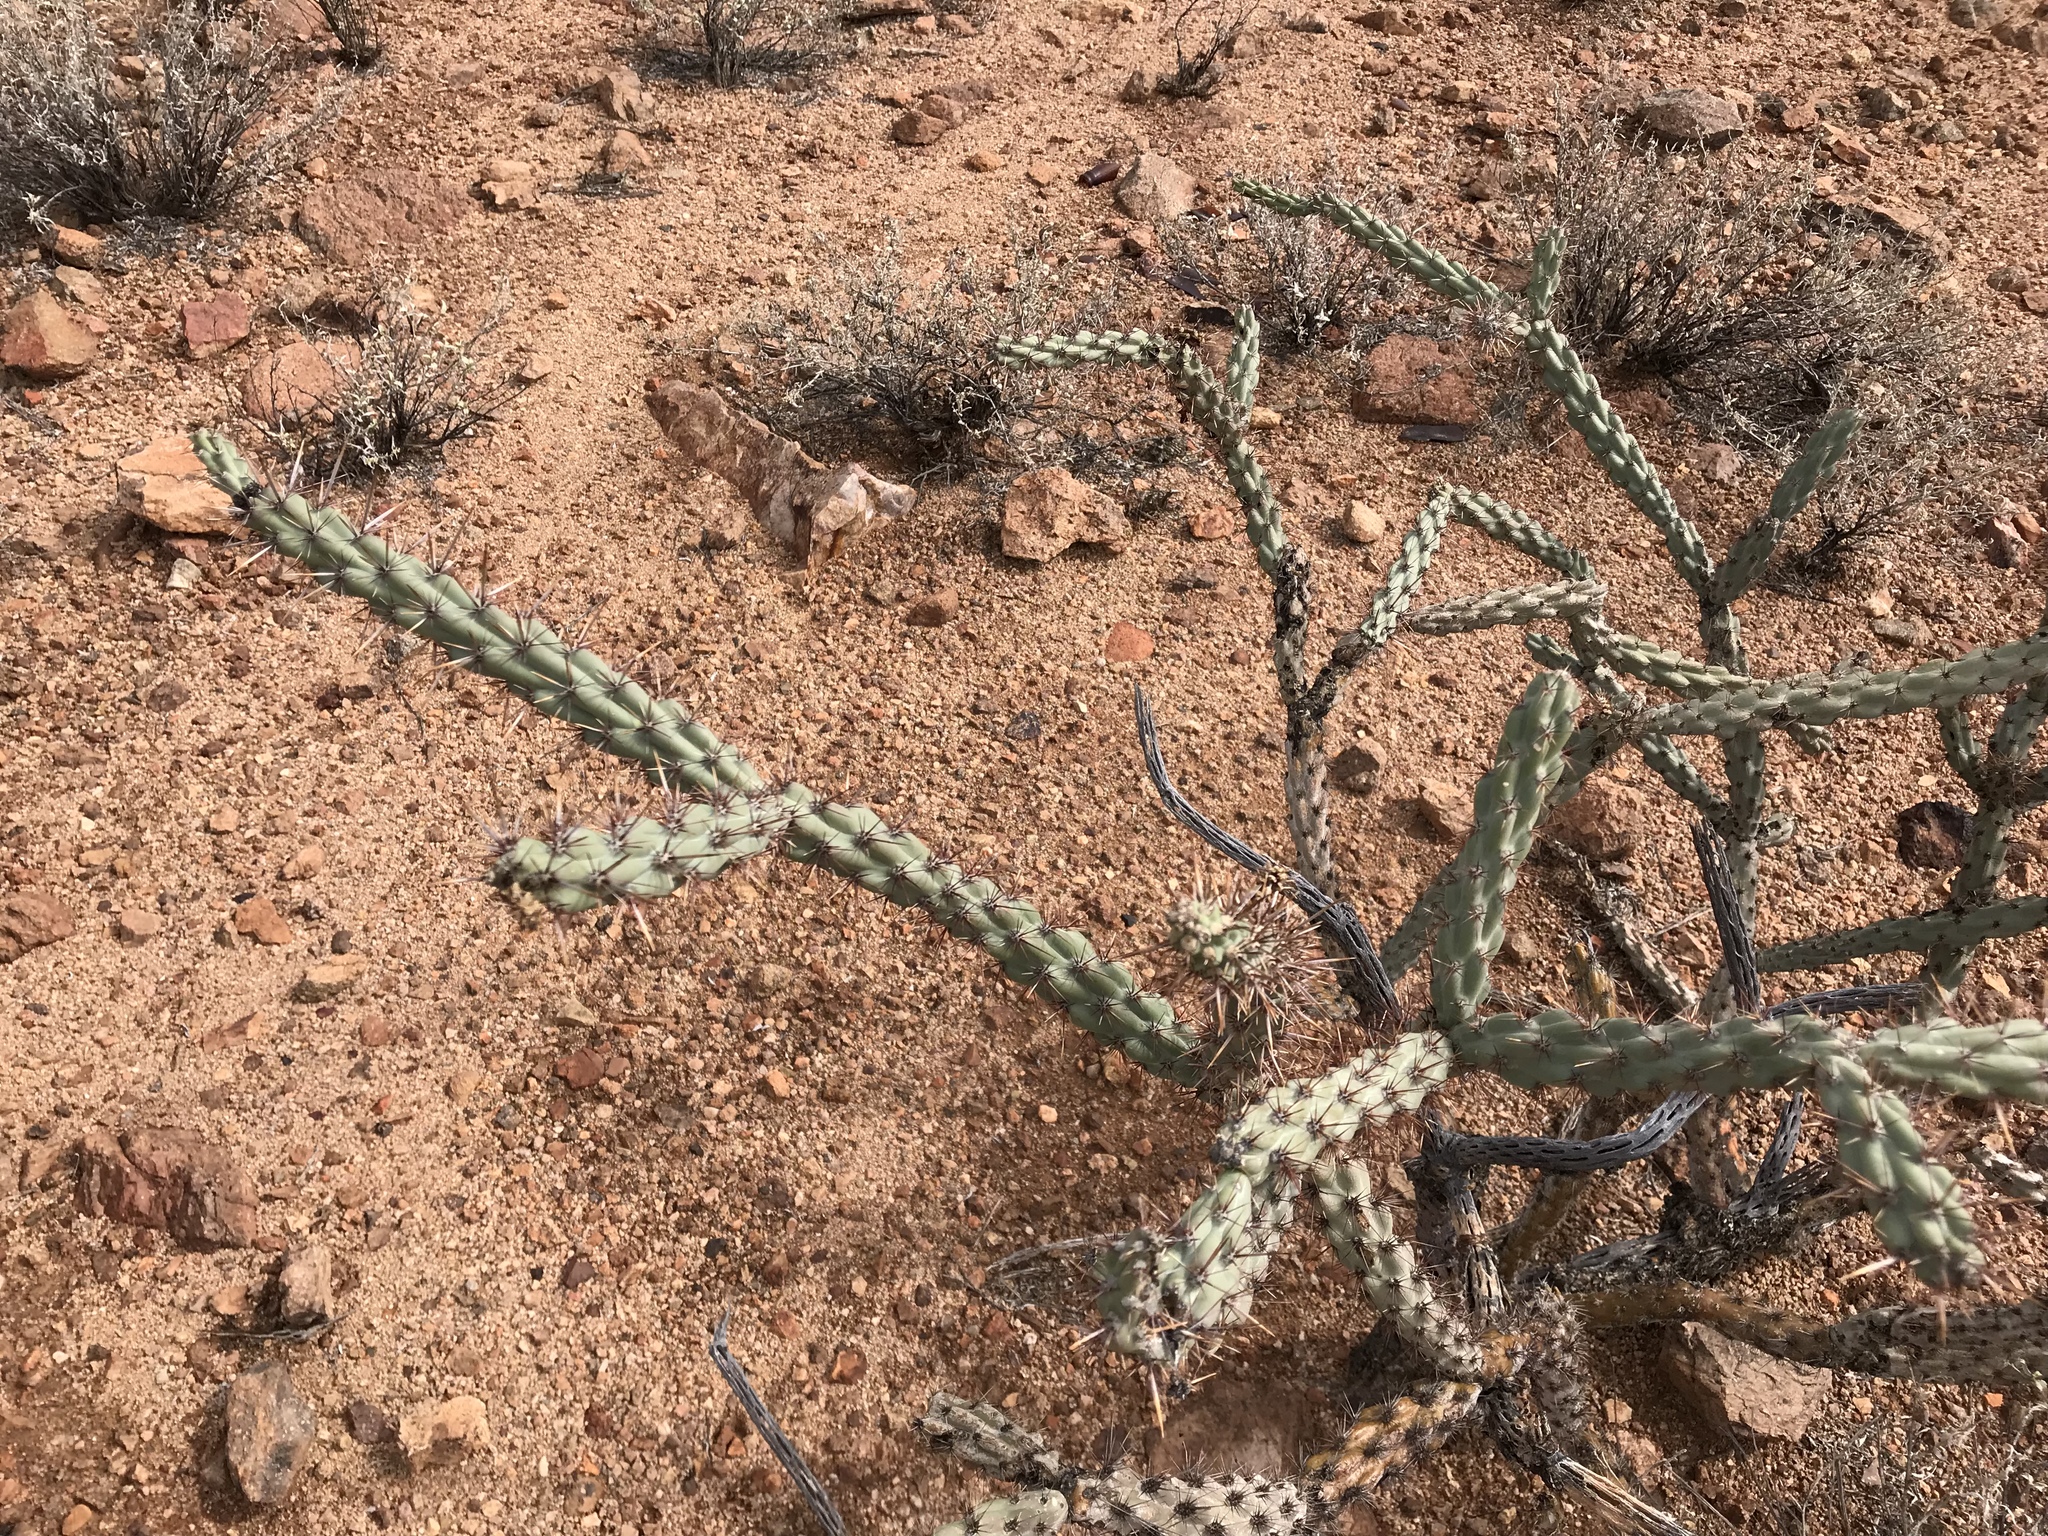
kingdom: Plantae
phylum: Tracheophyta
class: Magnoliopsida
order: Caryophyllales
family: Cactaceae
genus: Cylindropuntia
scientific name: Cylindropuntia thurberi
